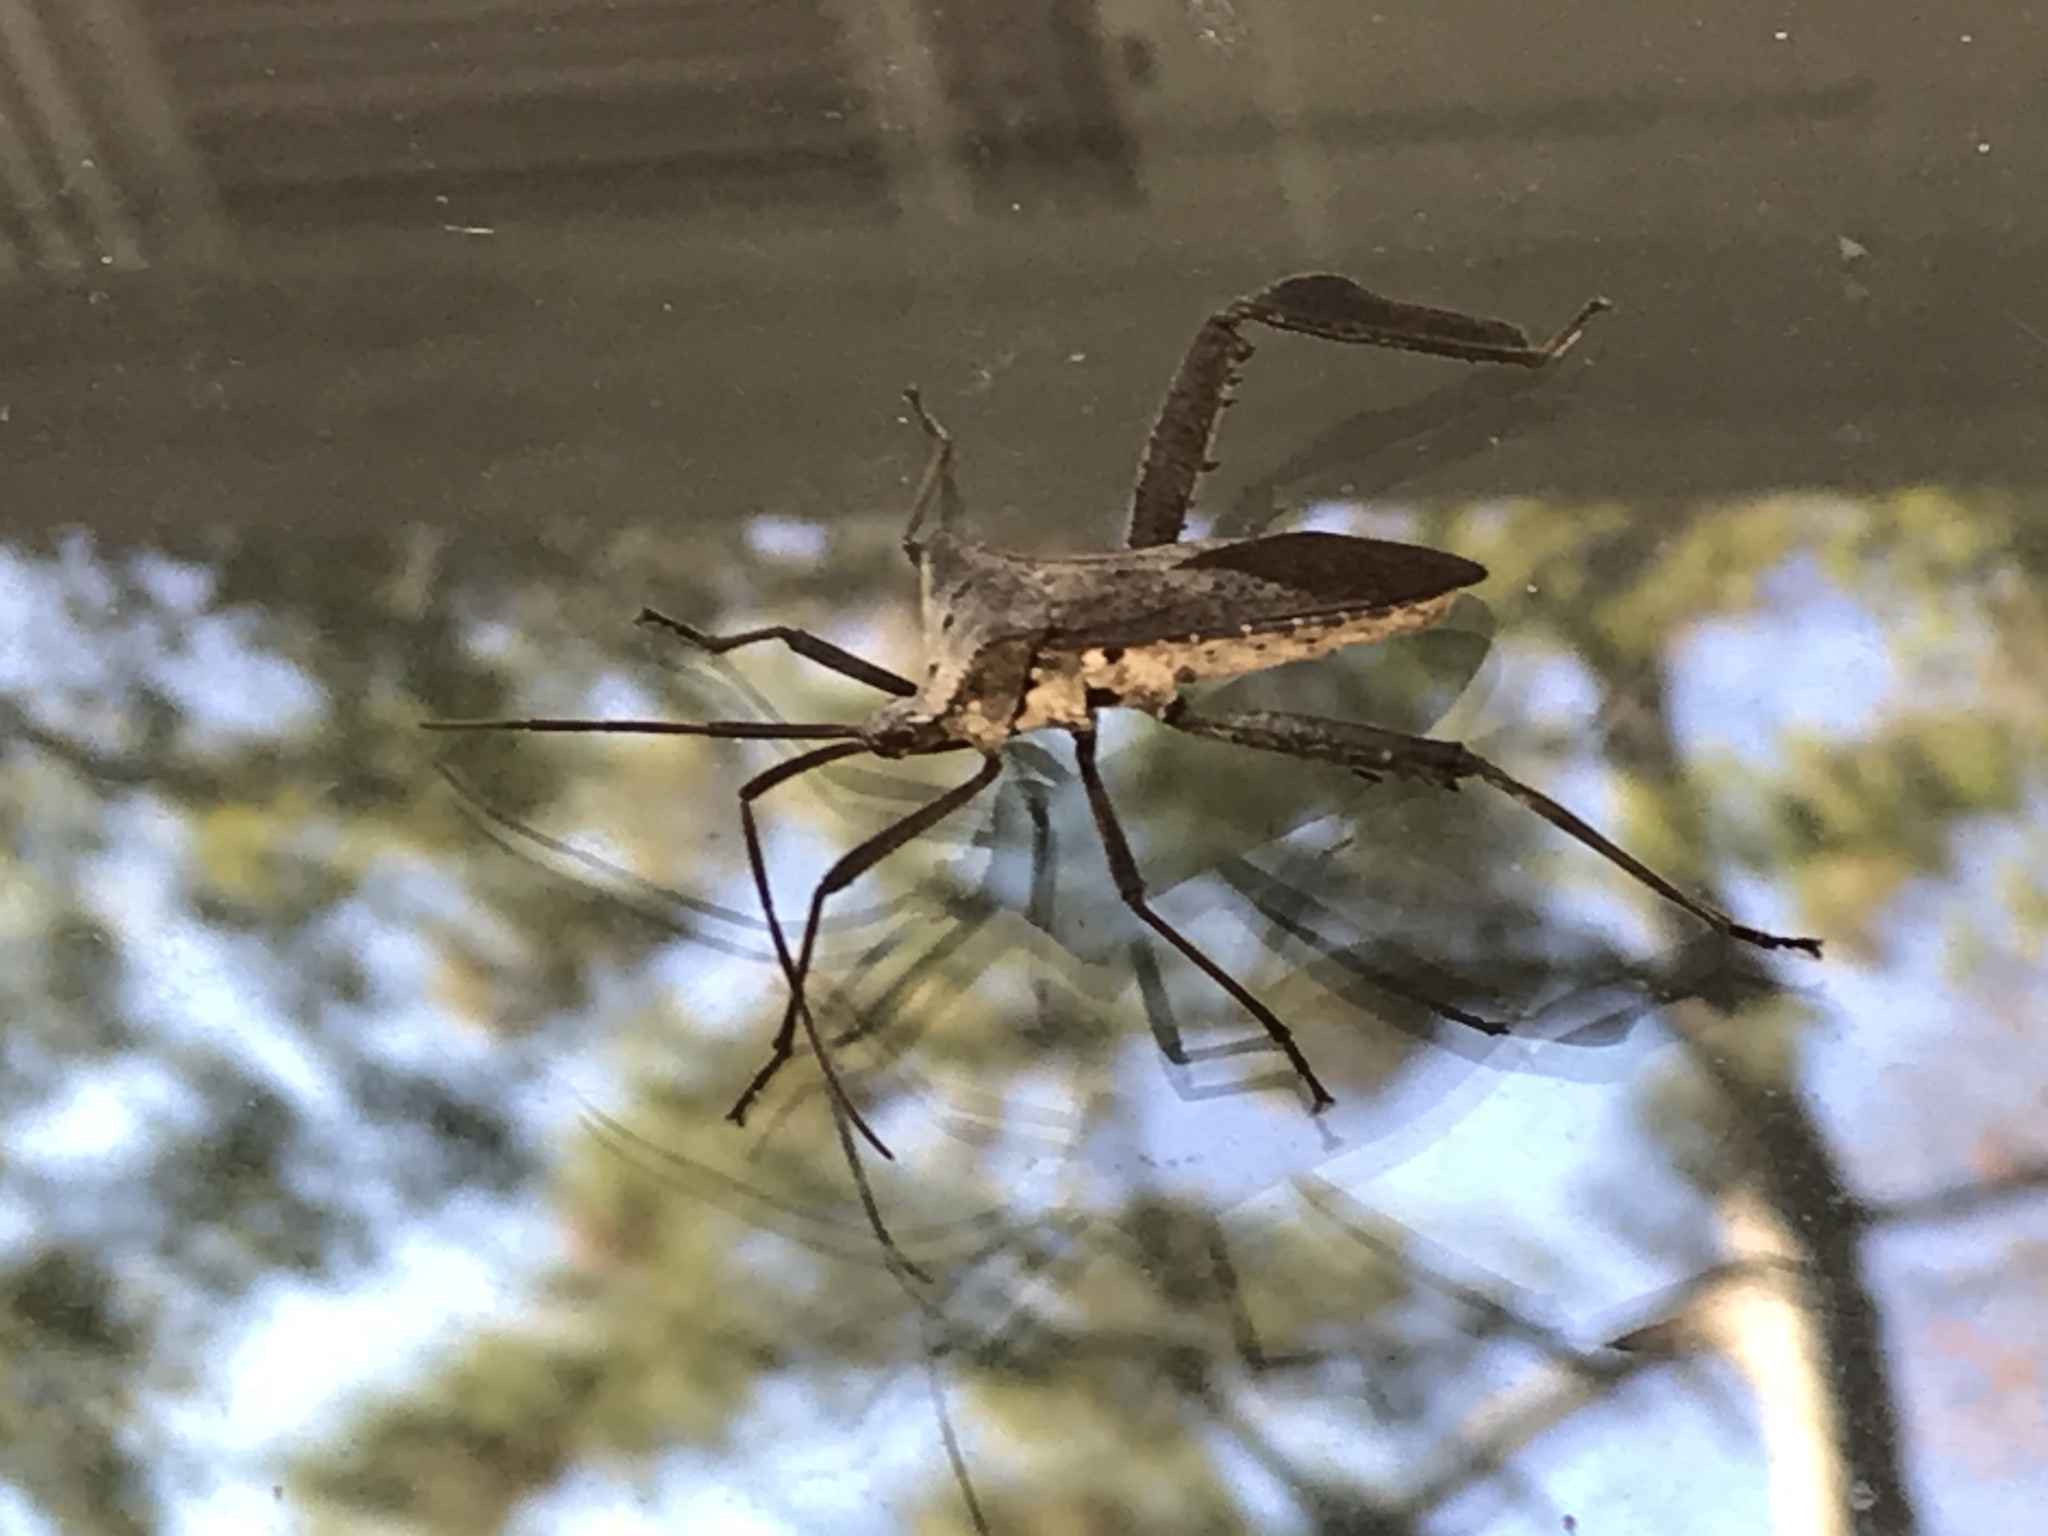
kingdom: Animalia
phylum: Arthropoda
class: Insecta
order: Hemiptera
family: Coreidae
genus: Acanthocephala
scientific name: Acanthocephala declivis
